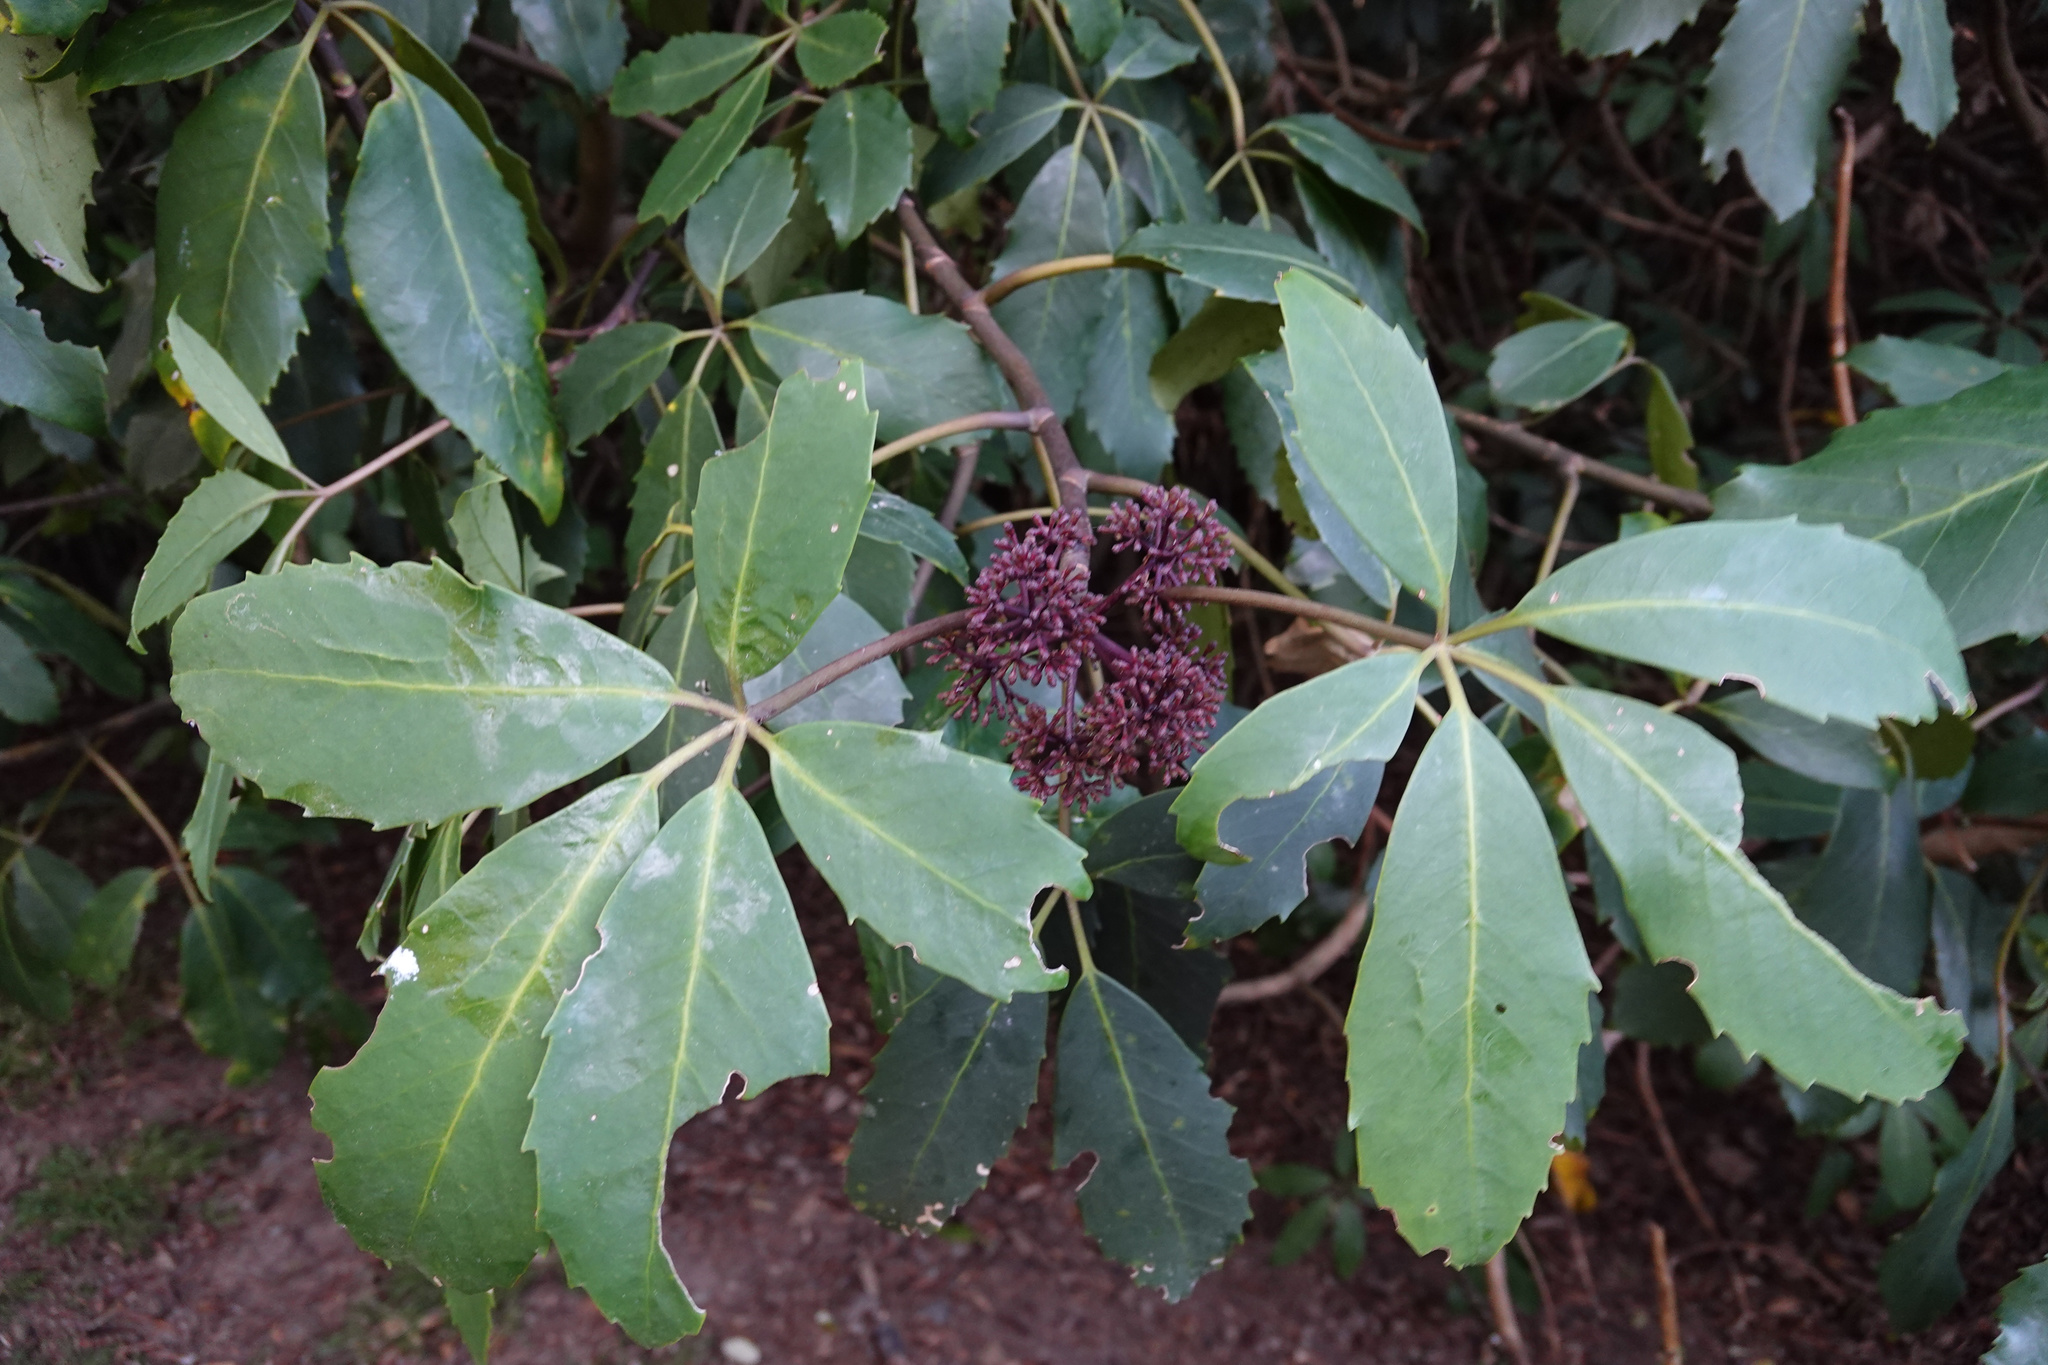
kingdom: Plantae
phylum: Tracheophyta
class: Magnoliopsida
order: Apiales
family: Araliaceae
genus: Neopanax
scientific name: Neopanax arboreus
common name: Five-fingers
